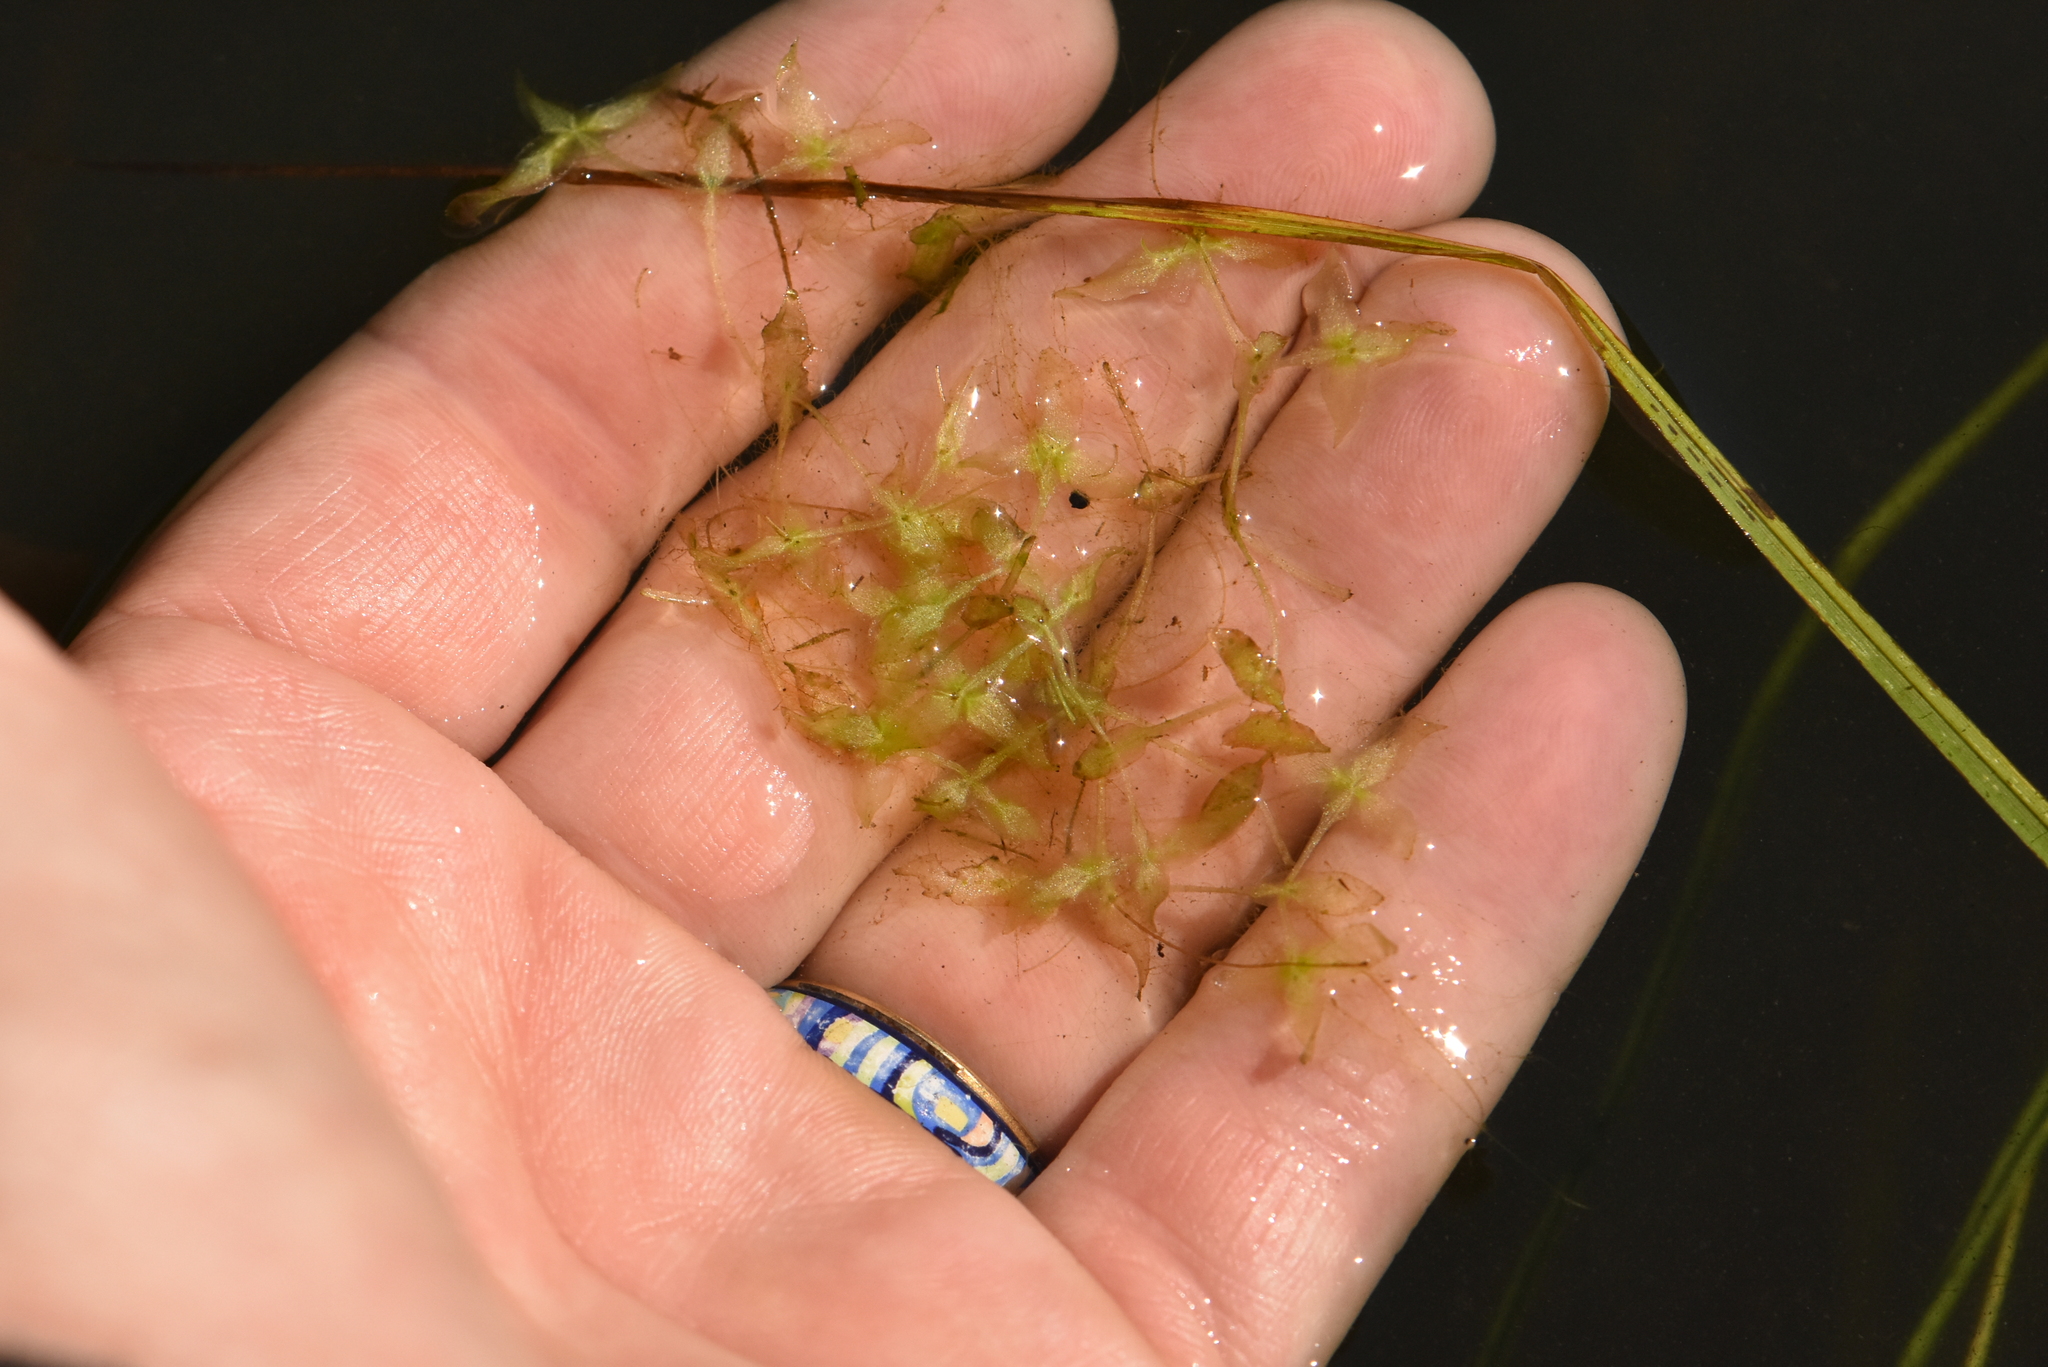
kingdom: Plantae
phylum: Tracheophyta
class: Liliopsida
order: Alismatales
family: Araceae
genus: Lemna
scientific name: Lemna trisulca
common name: Ivy-leaved duckweed
